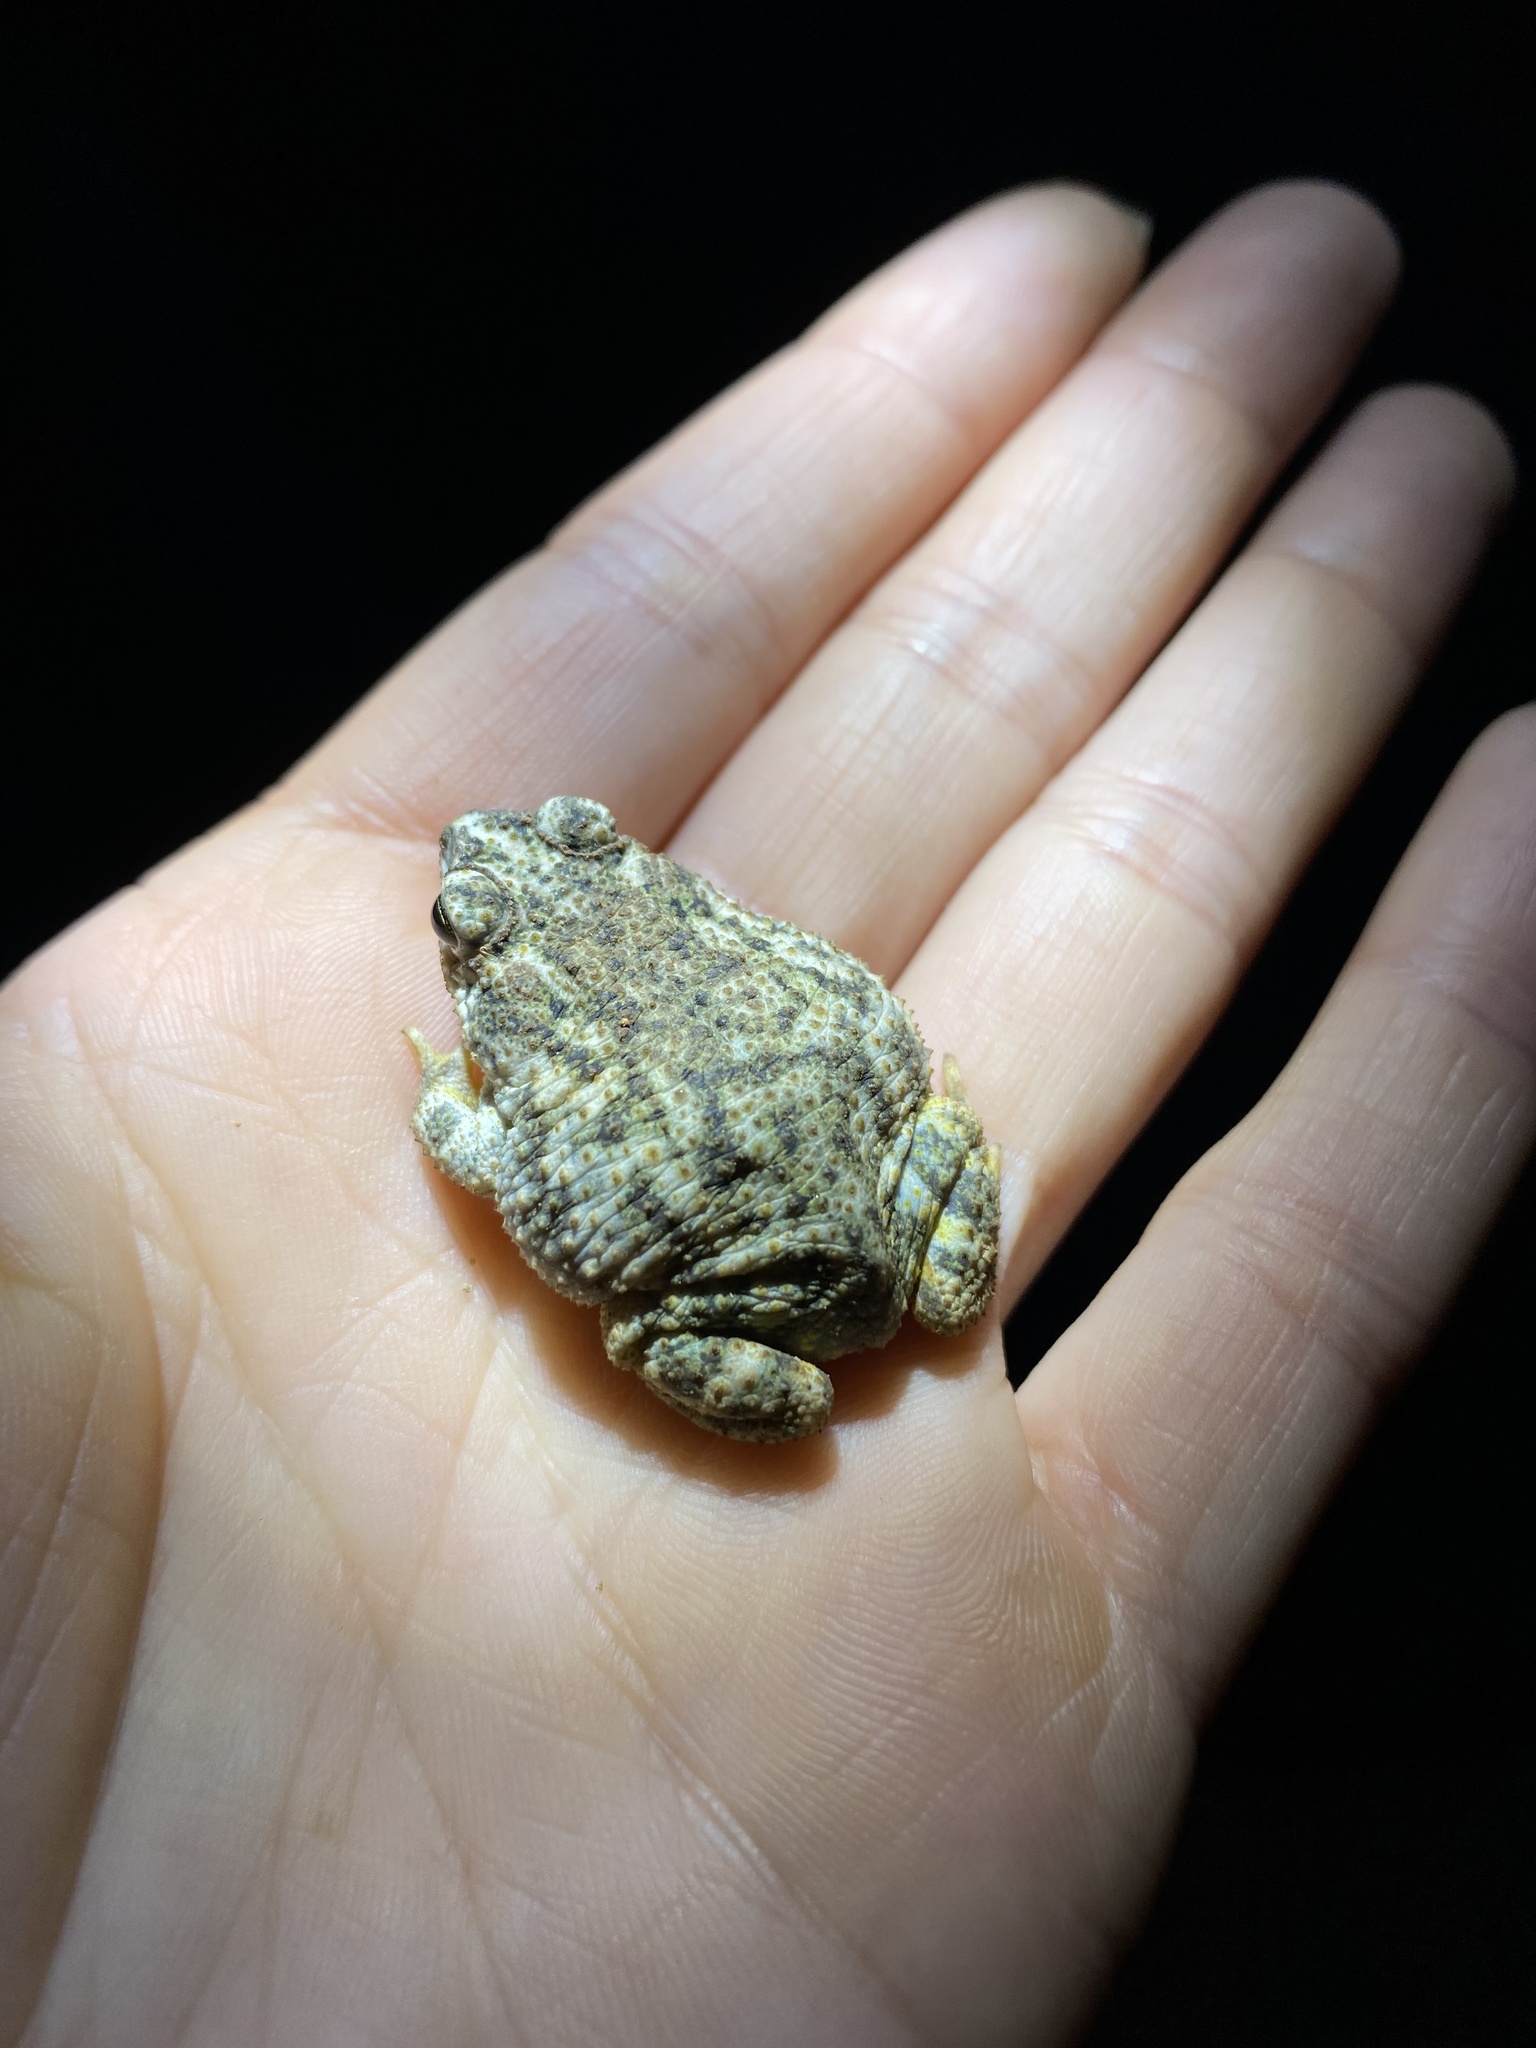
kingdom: Animalia
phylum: Chordata
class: Amphibia
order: Anura
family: Bufonidae
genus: Anaxyrus
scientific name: Anaxyrus kelloggi
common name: Little mexican toad
